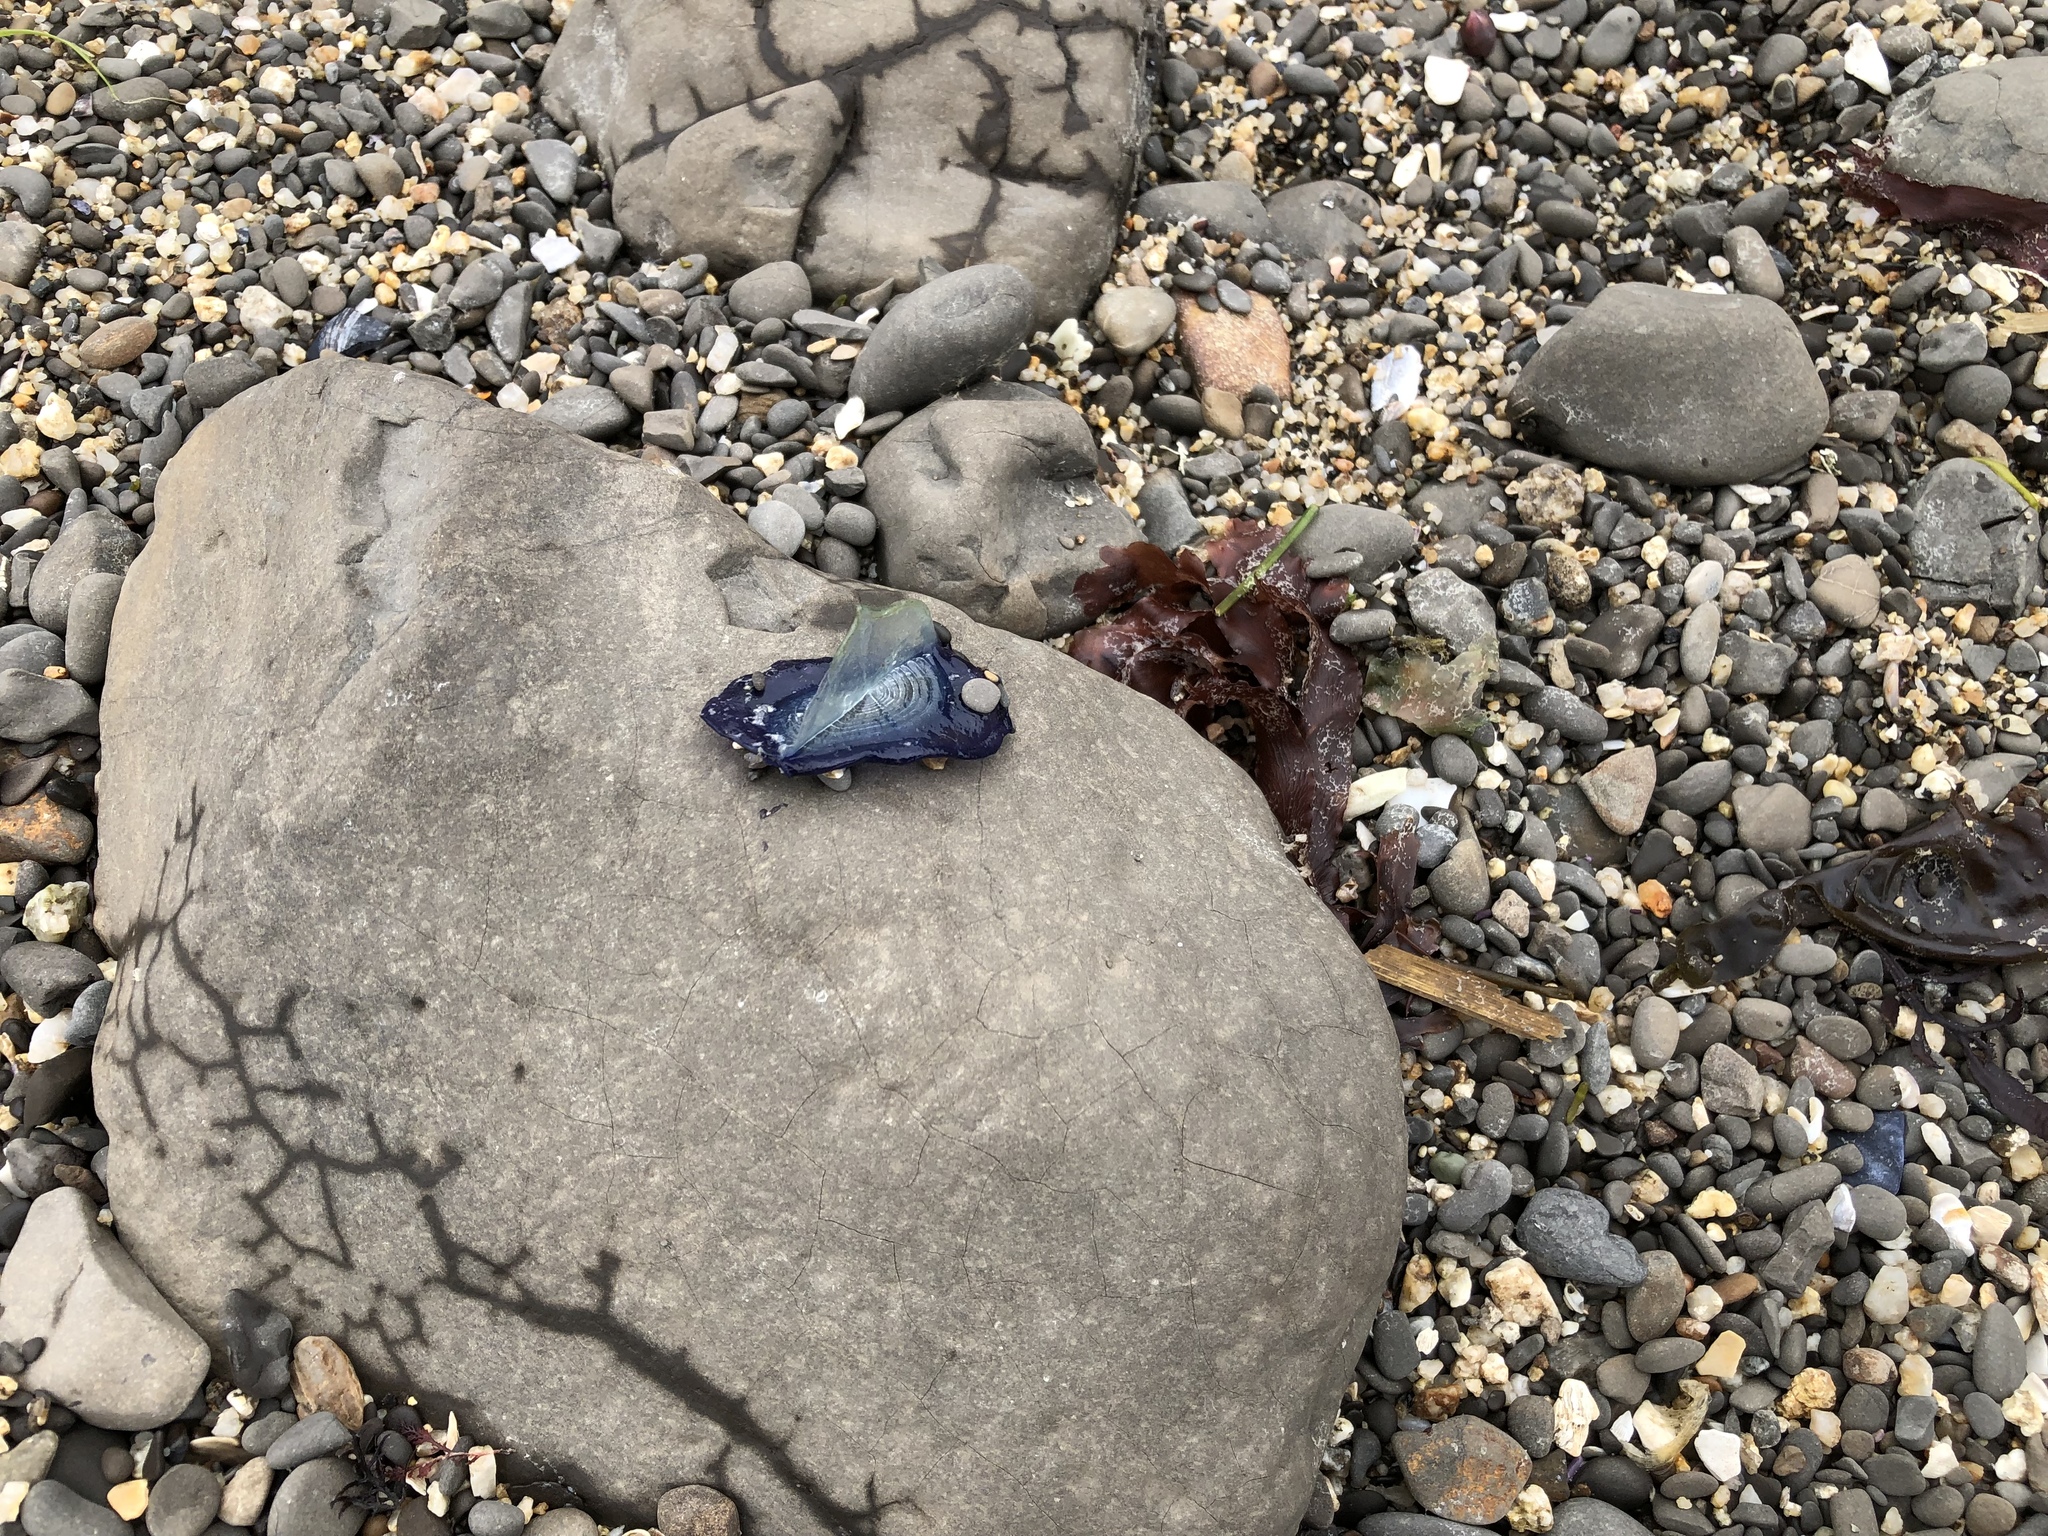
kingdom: Animalia
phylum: Cnidaria
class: Hydrozoa
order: Anthoathecata
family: Porpitidae
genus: Velella
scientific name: Velella velella
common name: By-the-wind-sailor
